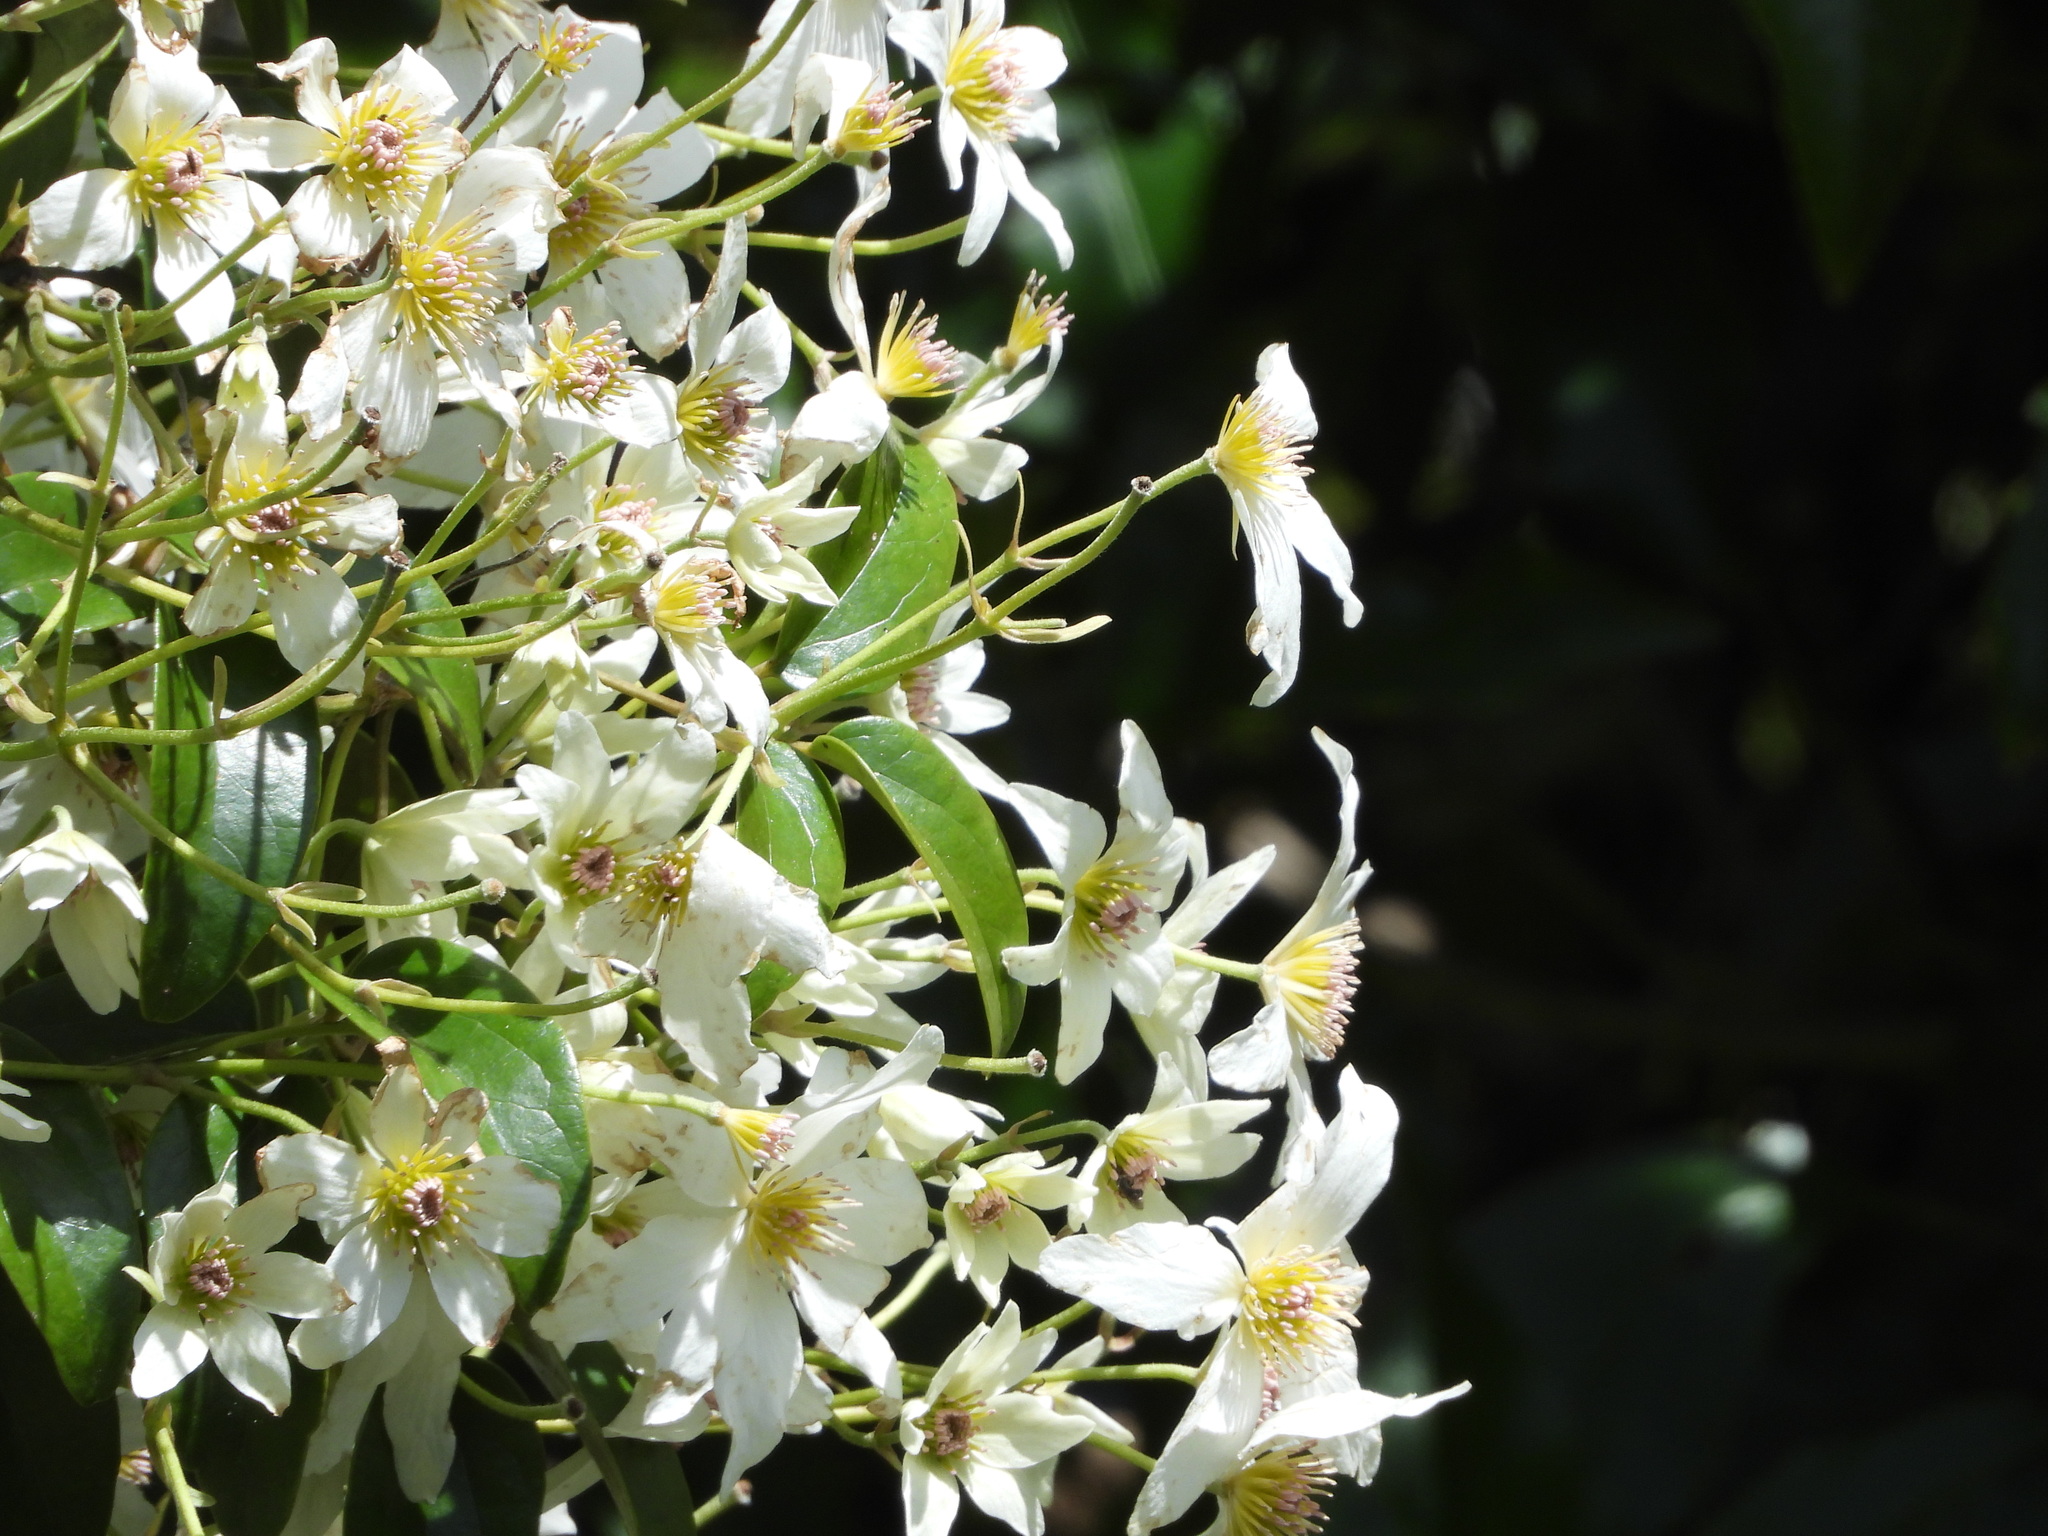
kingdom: Plantae
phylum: Tracheophyta
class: Magnoliopsida
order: Ranunculales
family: Ranunculaceae
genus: Clematis
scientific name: Clematis paniculata
